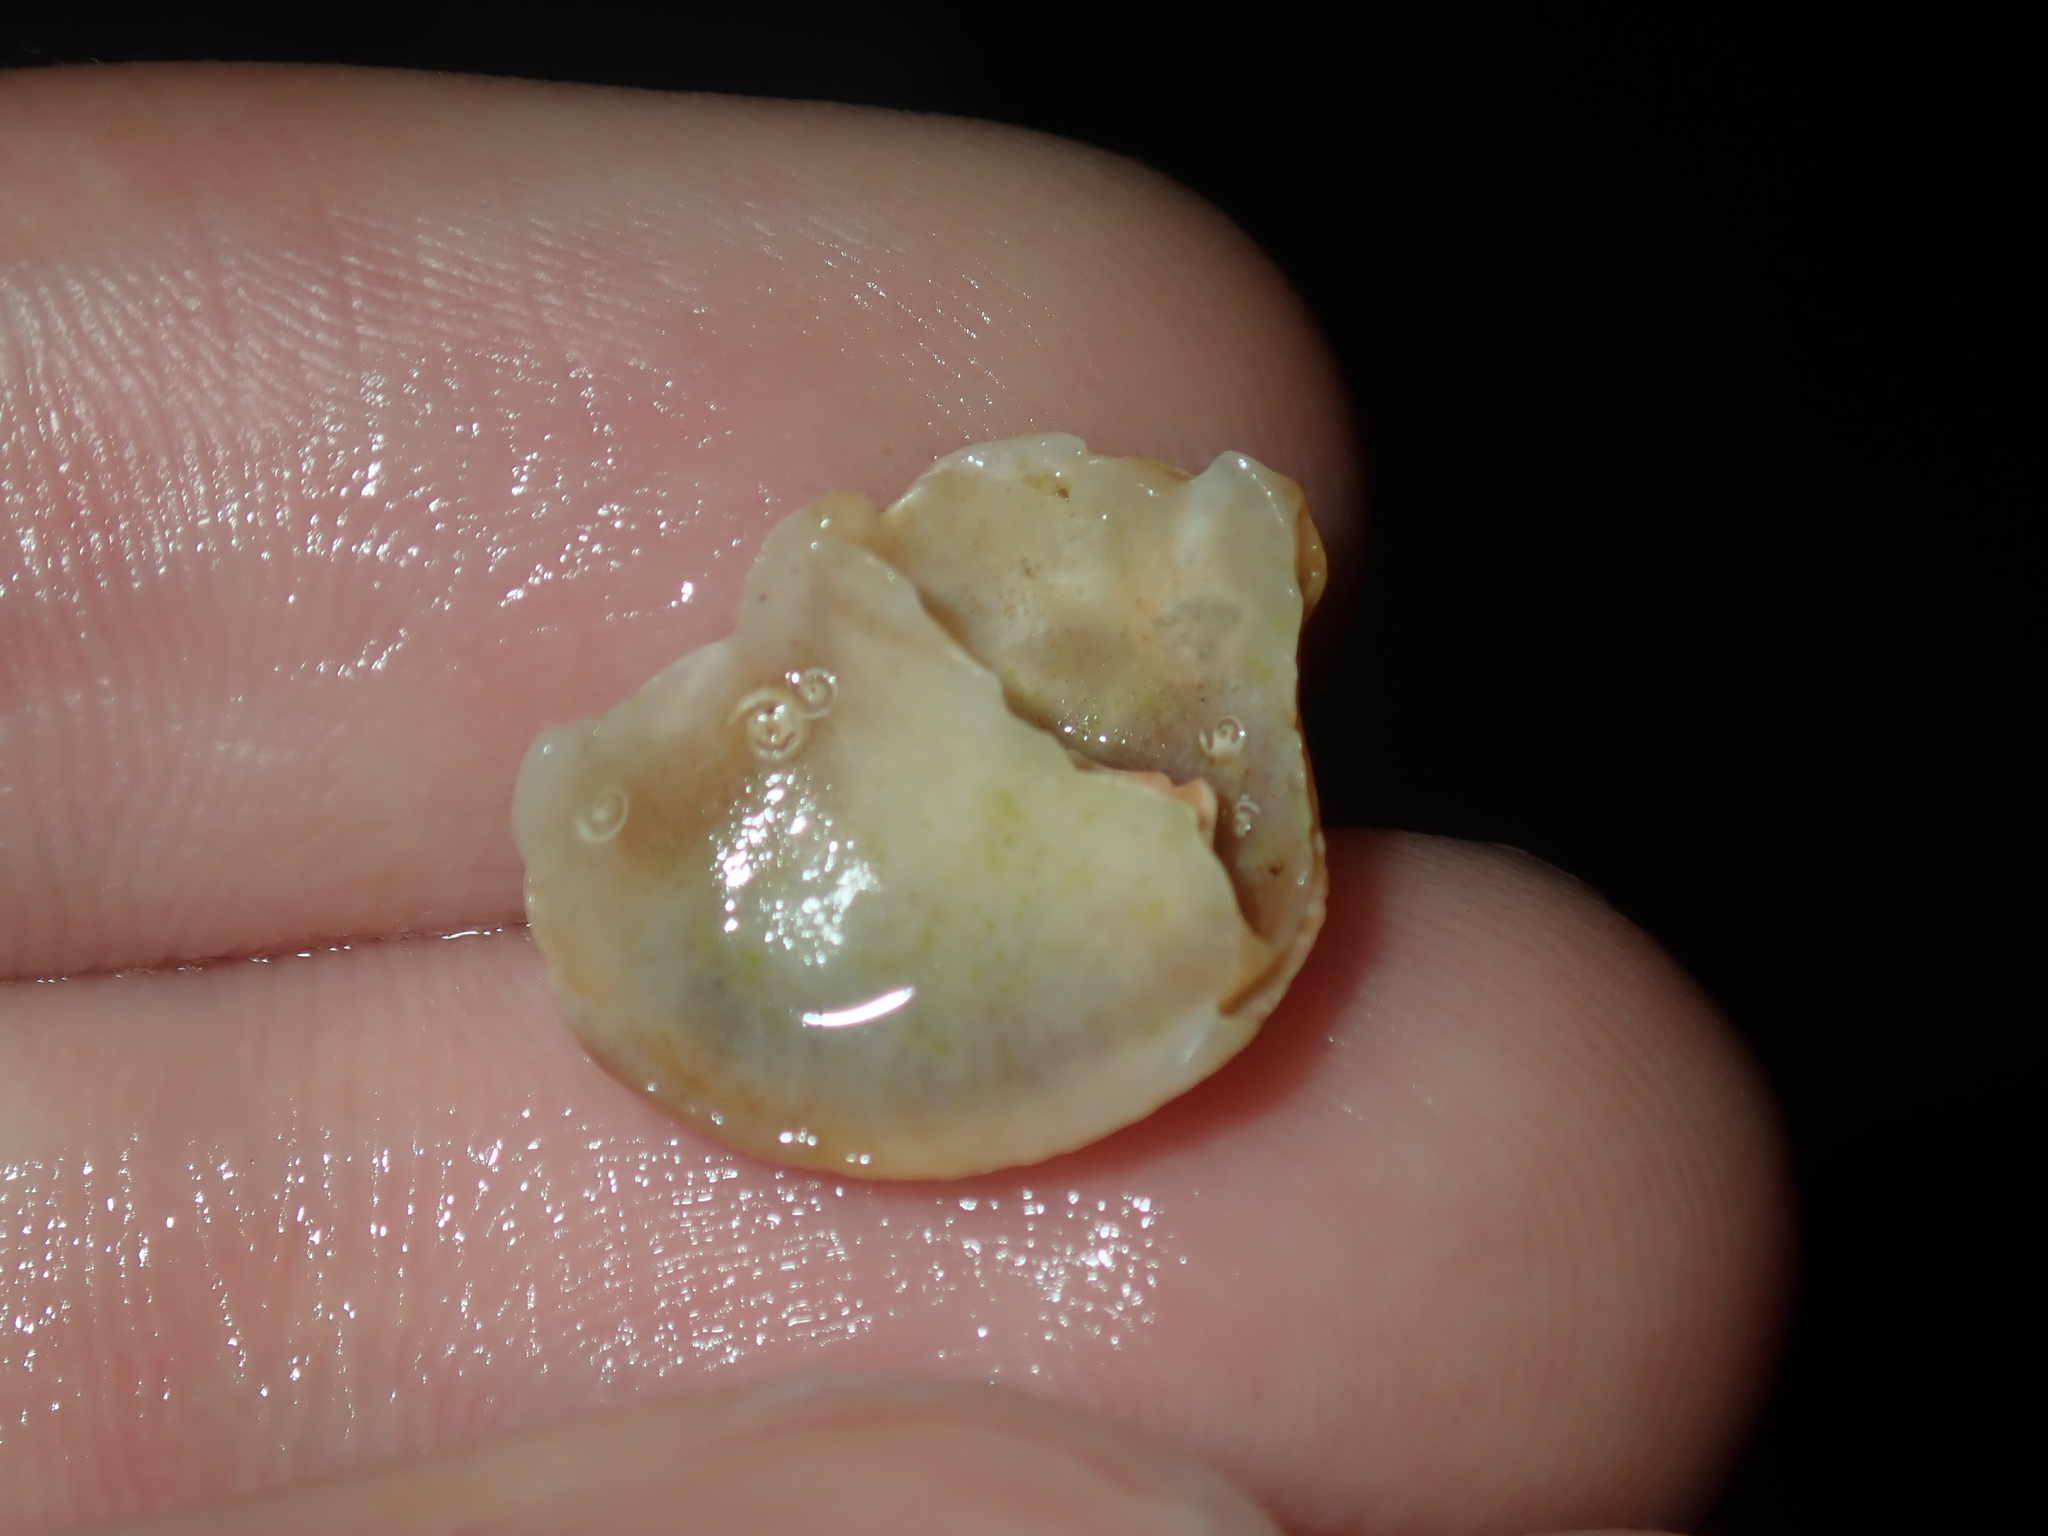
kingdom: Animalia
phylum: Mollusca
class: Gastropoda
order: Littorinimorpha
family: Calyptraeidae
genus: Bostrycapulus
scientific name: Bostrycapulus pritzkeri
